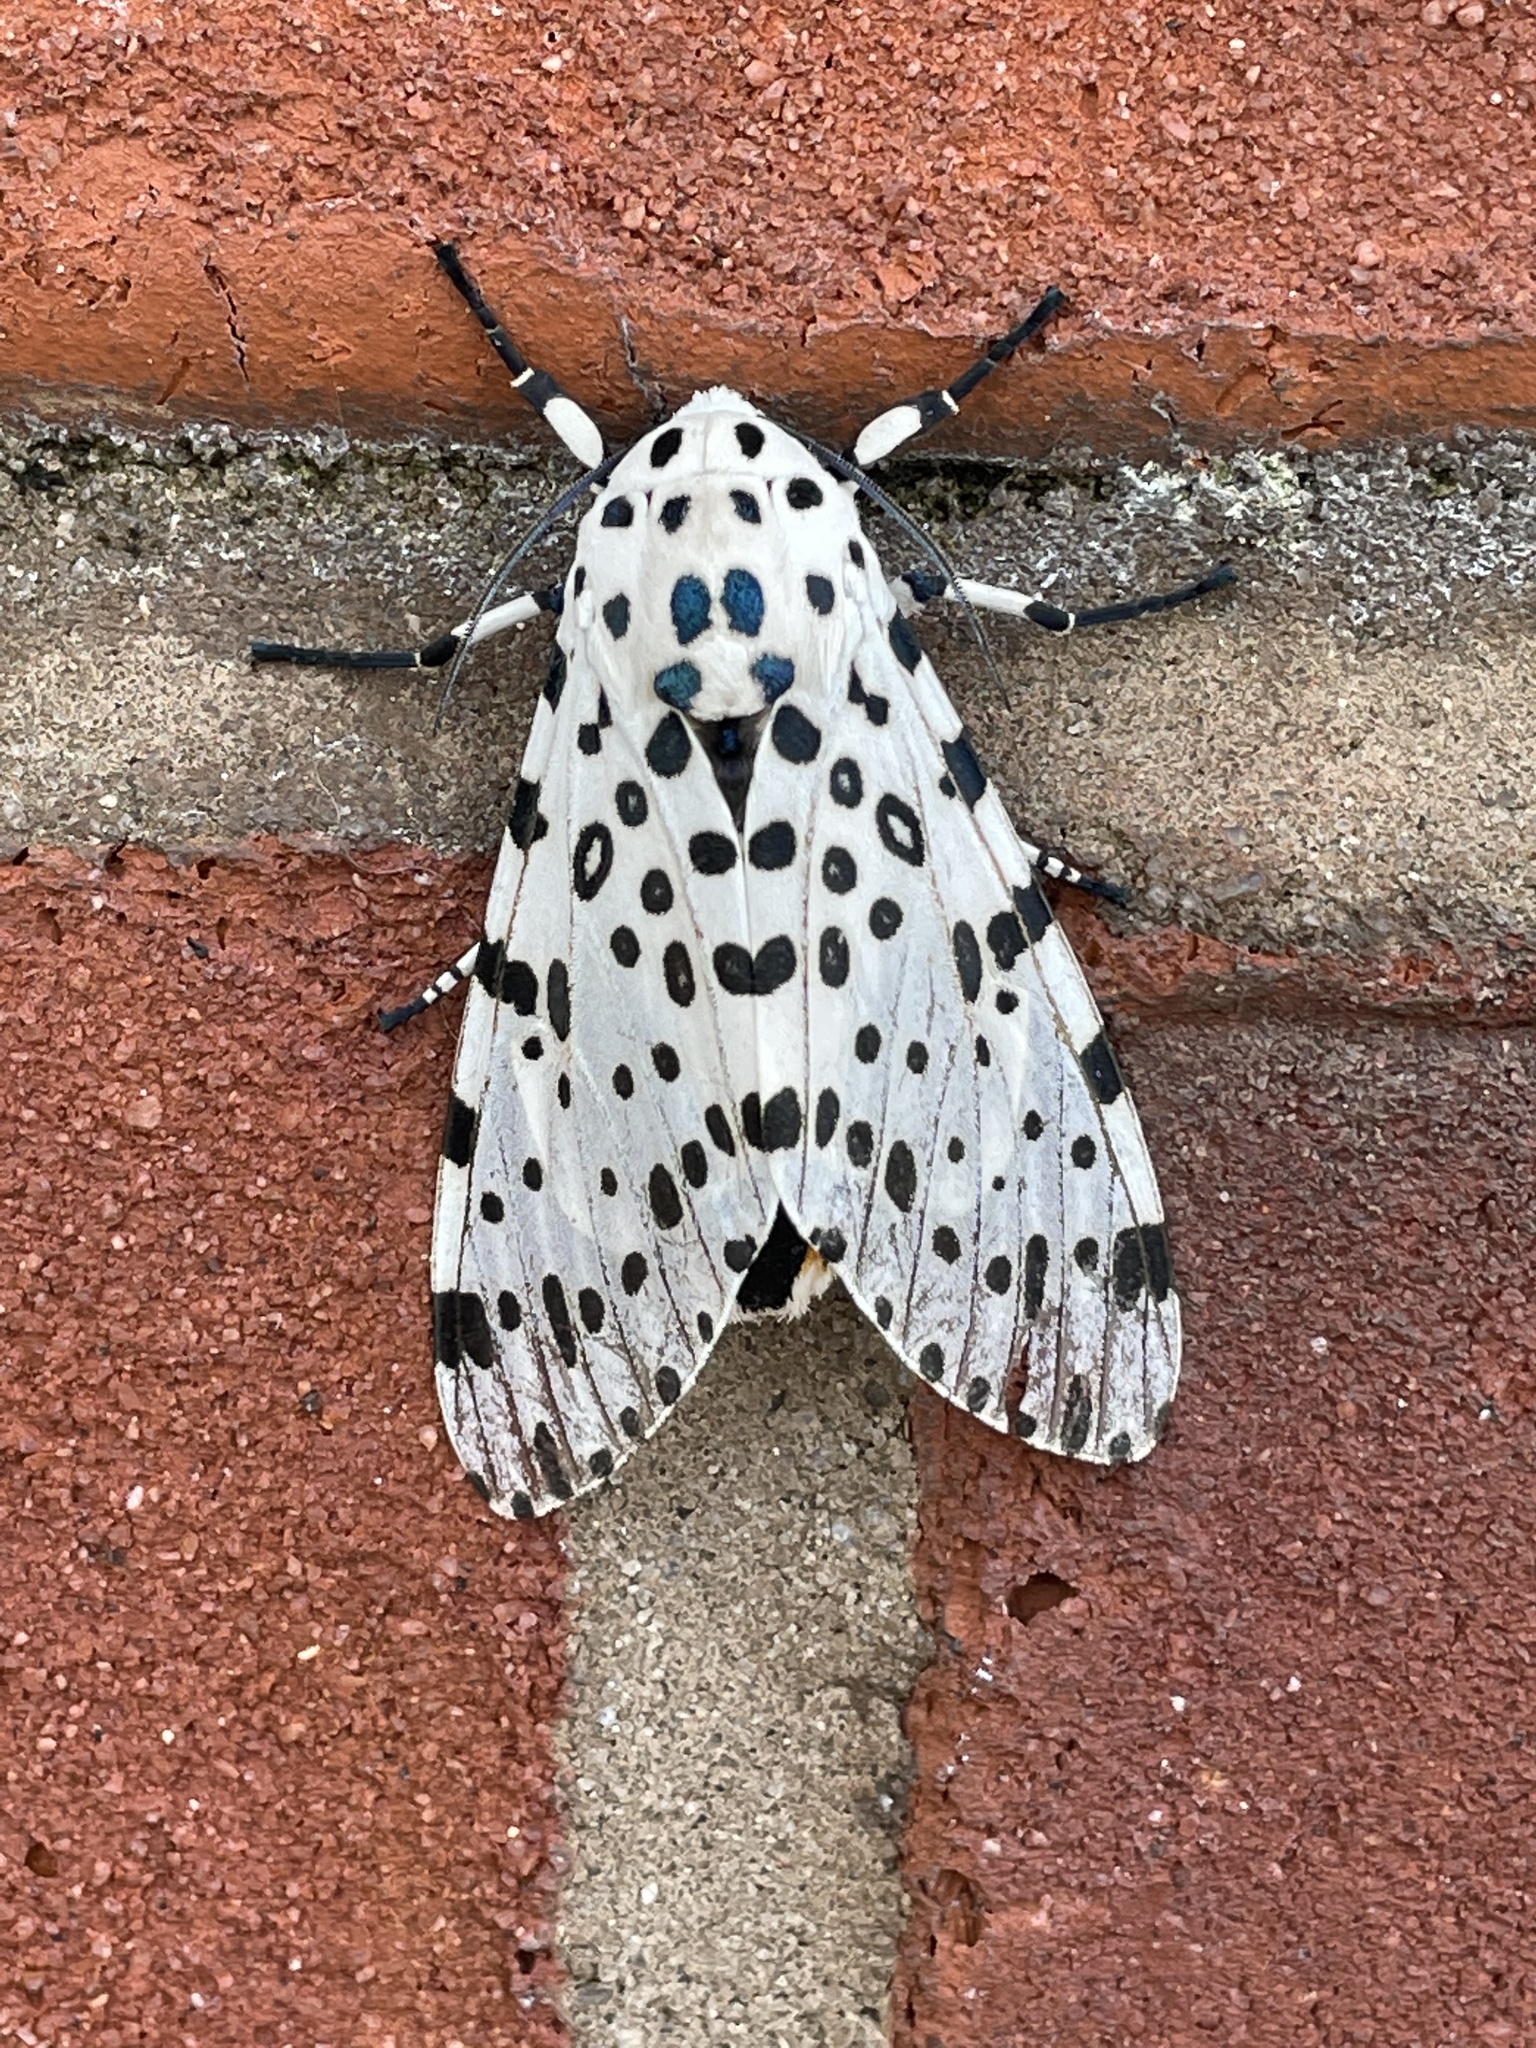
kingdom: Animalia
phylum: Arthropoda
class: Insecta
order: Lepidoptera
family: Erebidae
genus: Hypercompe
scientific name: Hypercompe scribonia
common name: Giant leopard moth
